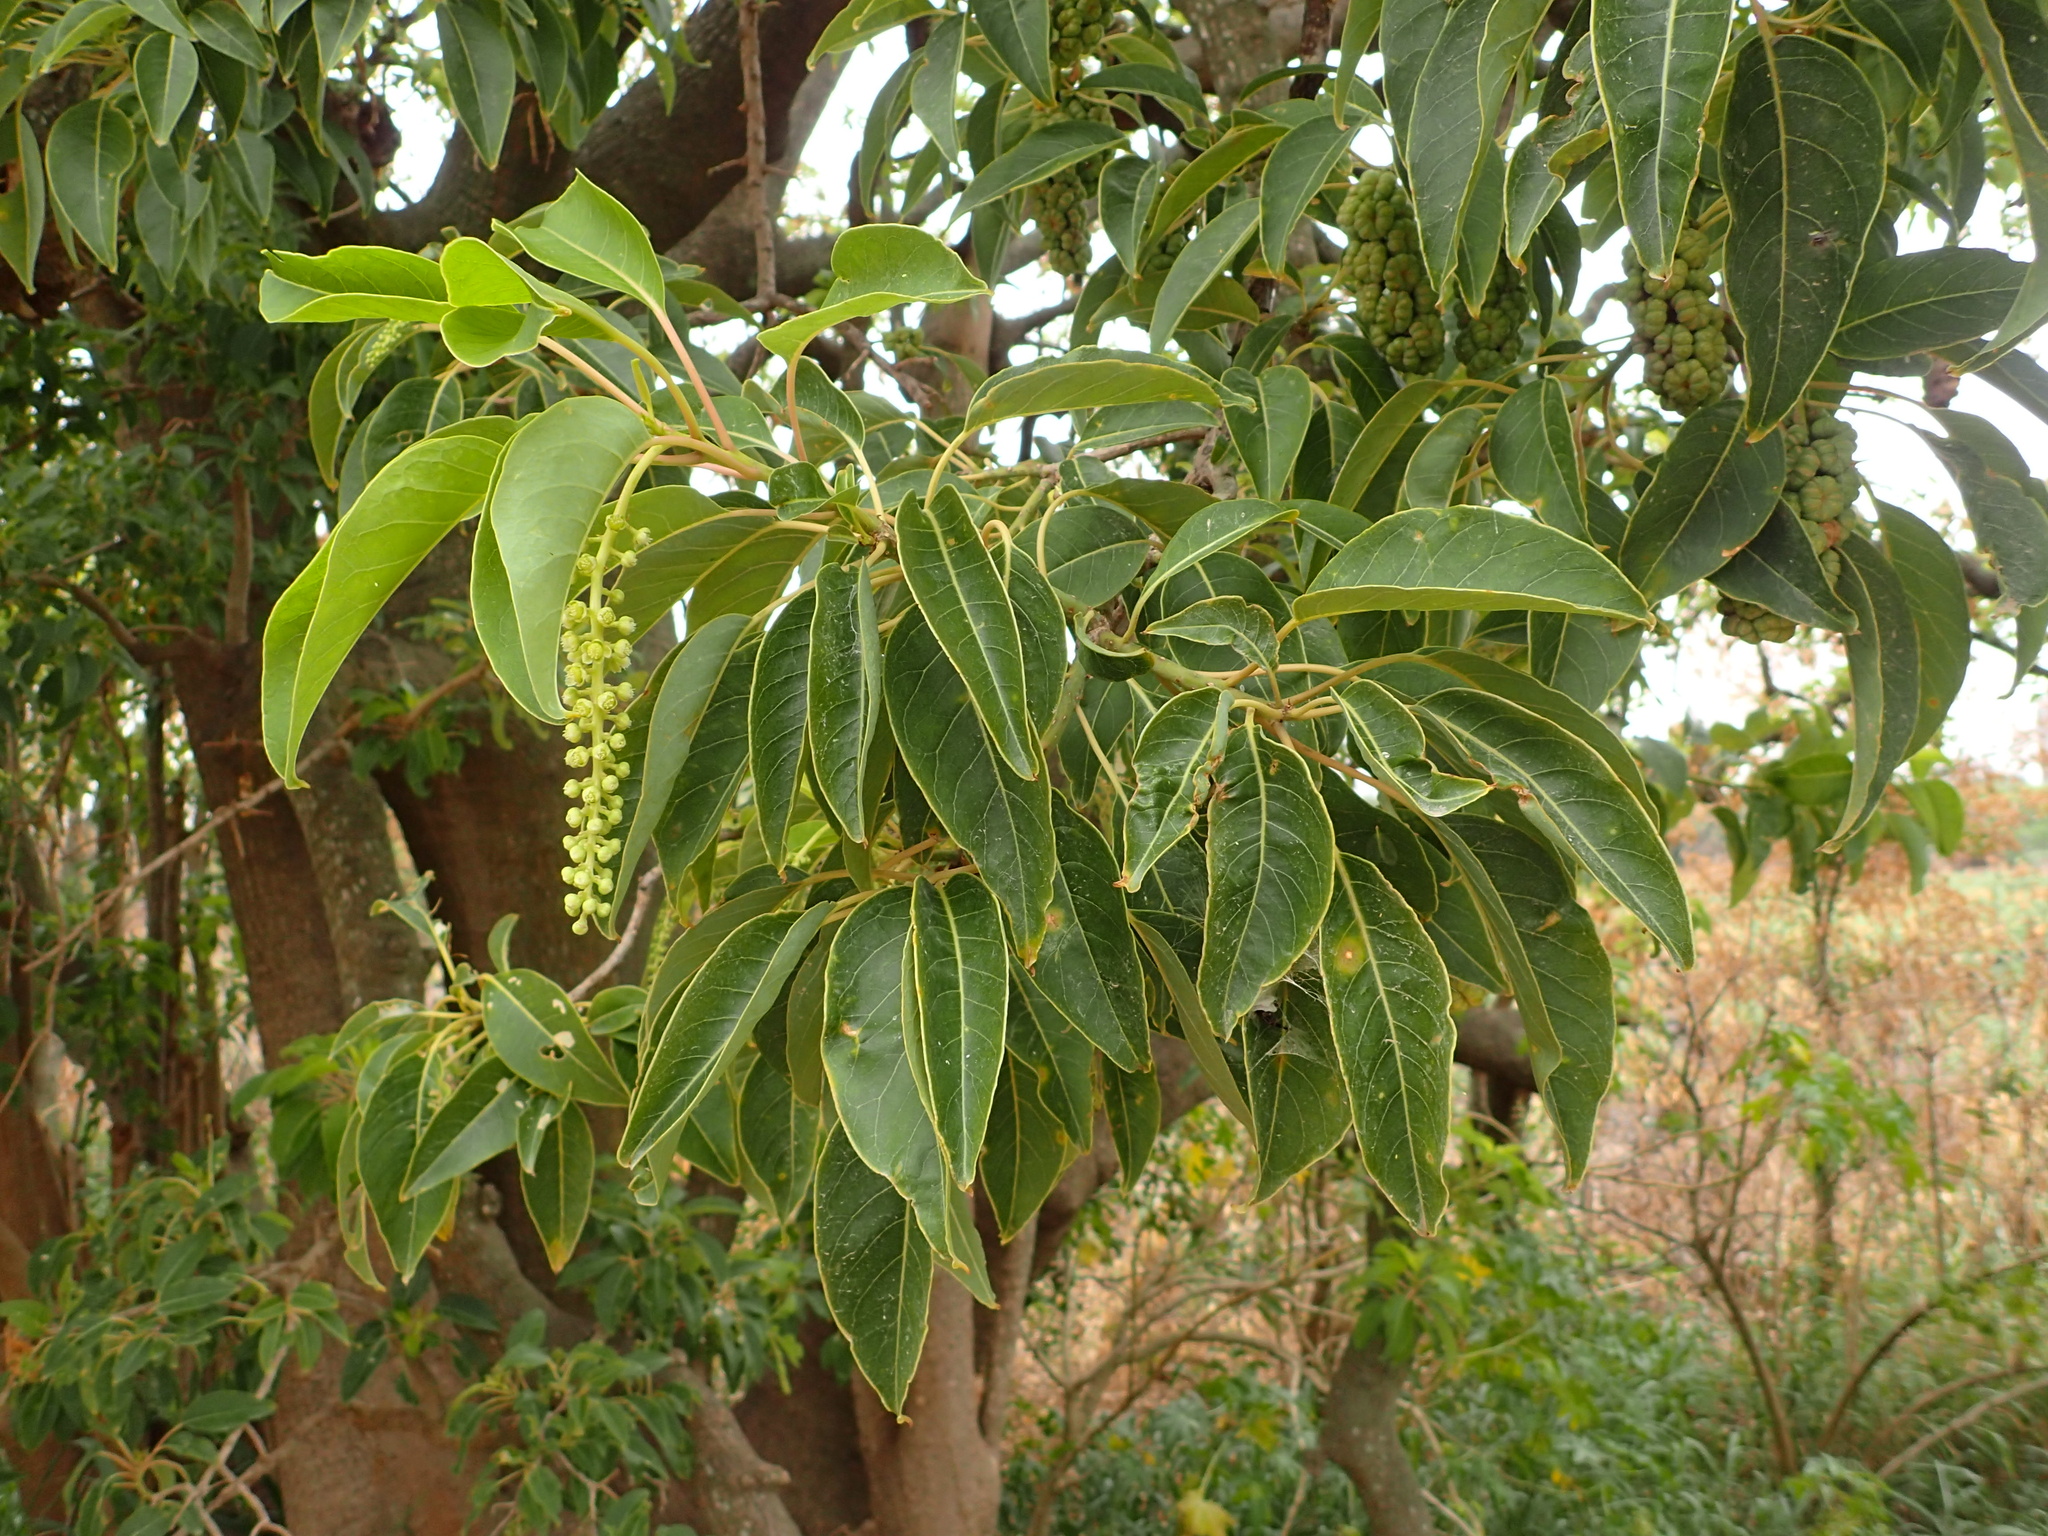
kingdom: Plantae
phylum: Tracheophyta
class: Magnoliopsida
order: Caryophyllales
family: Phytolaccaceae
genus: Phytolacca
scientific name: Phytolacca dioica
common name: Pokeweed
